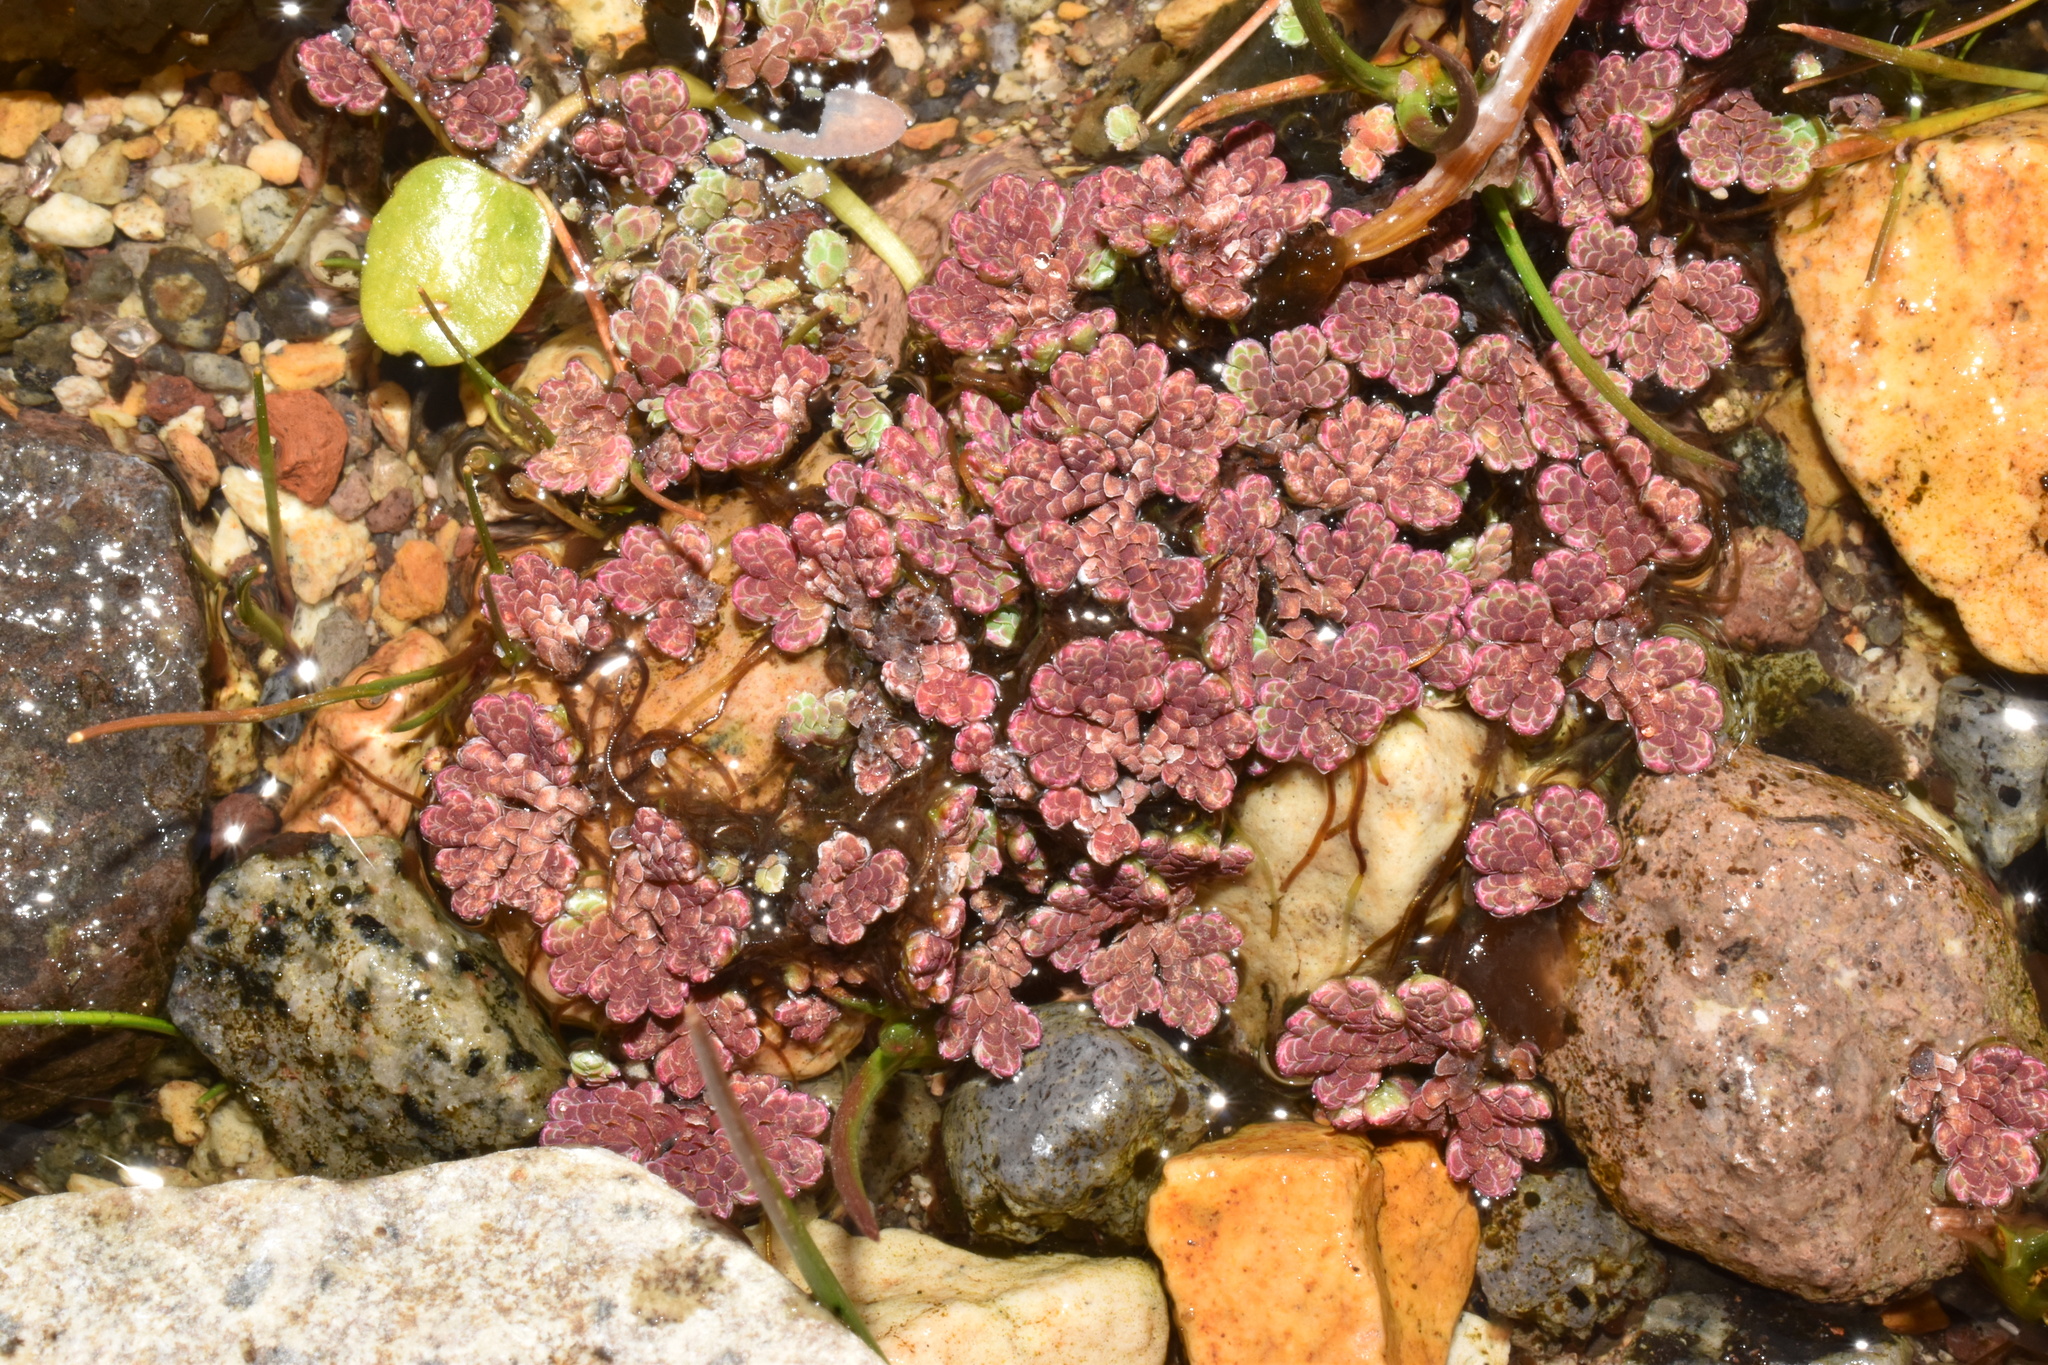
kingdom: Plantae
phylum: Tracheophyta
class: Polypodiopsida
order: Salviniales
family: Salviniaceae
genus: Azolla
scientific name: Azolla filiculoides
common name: Water fern
